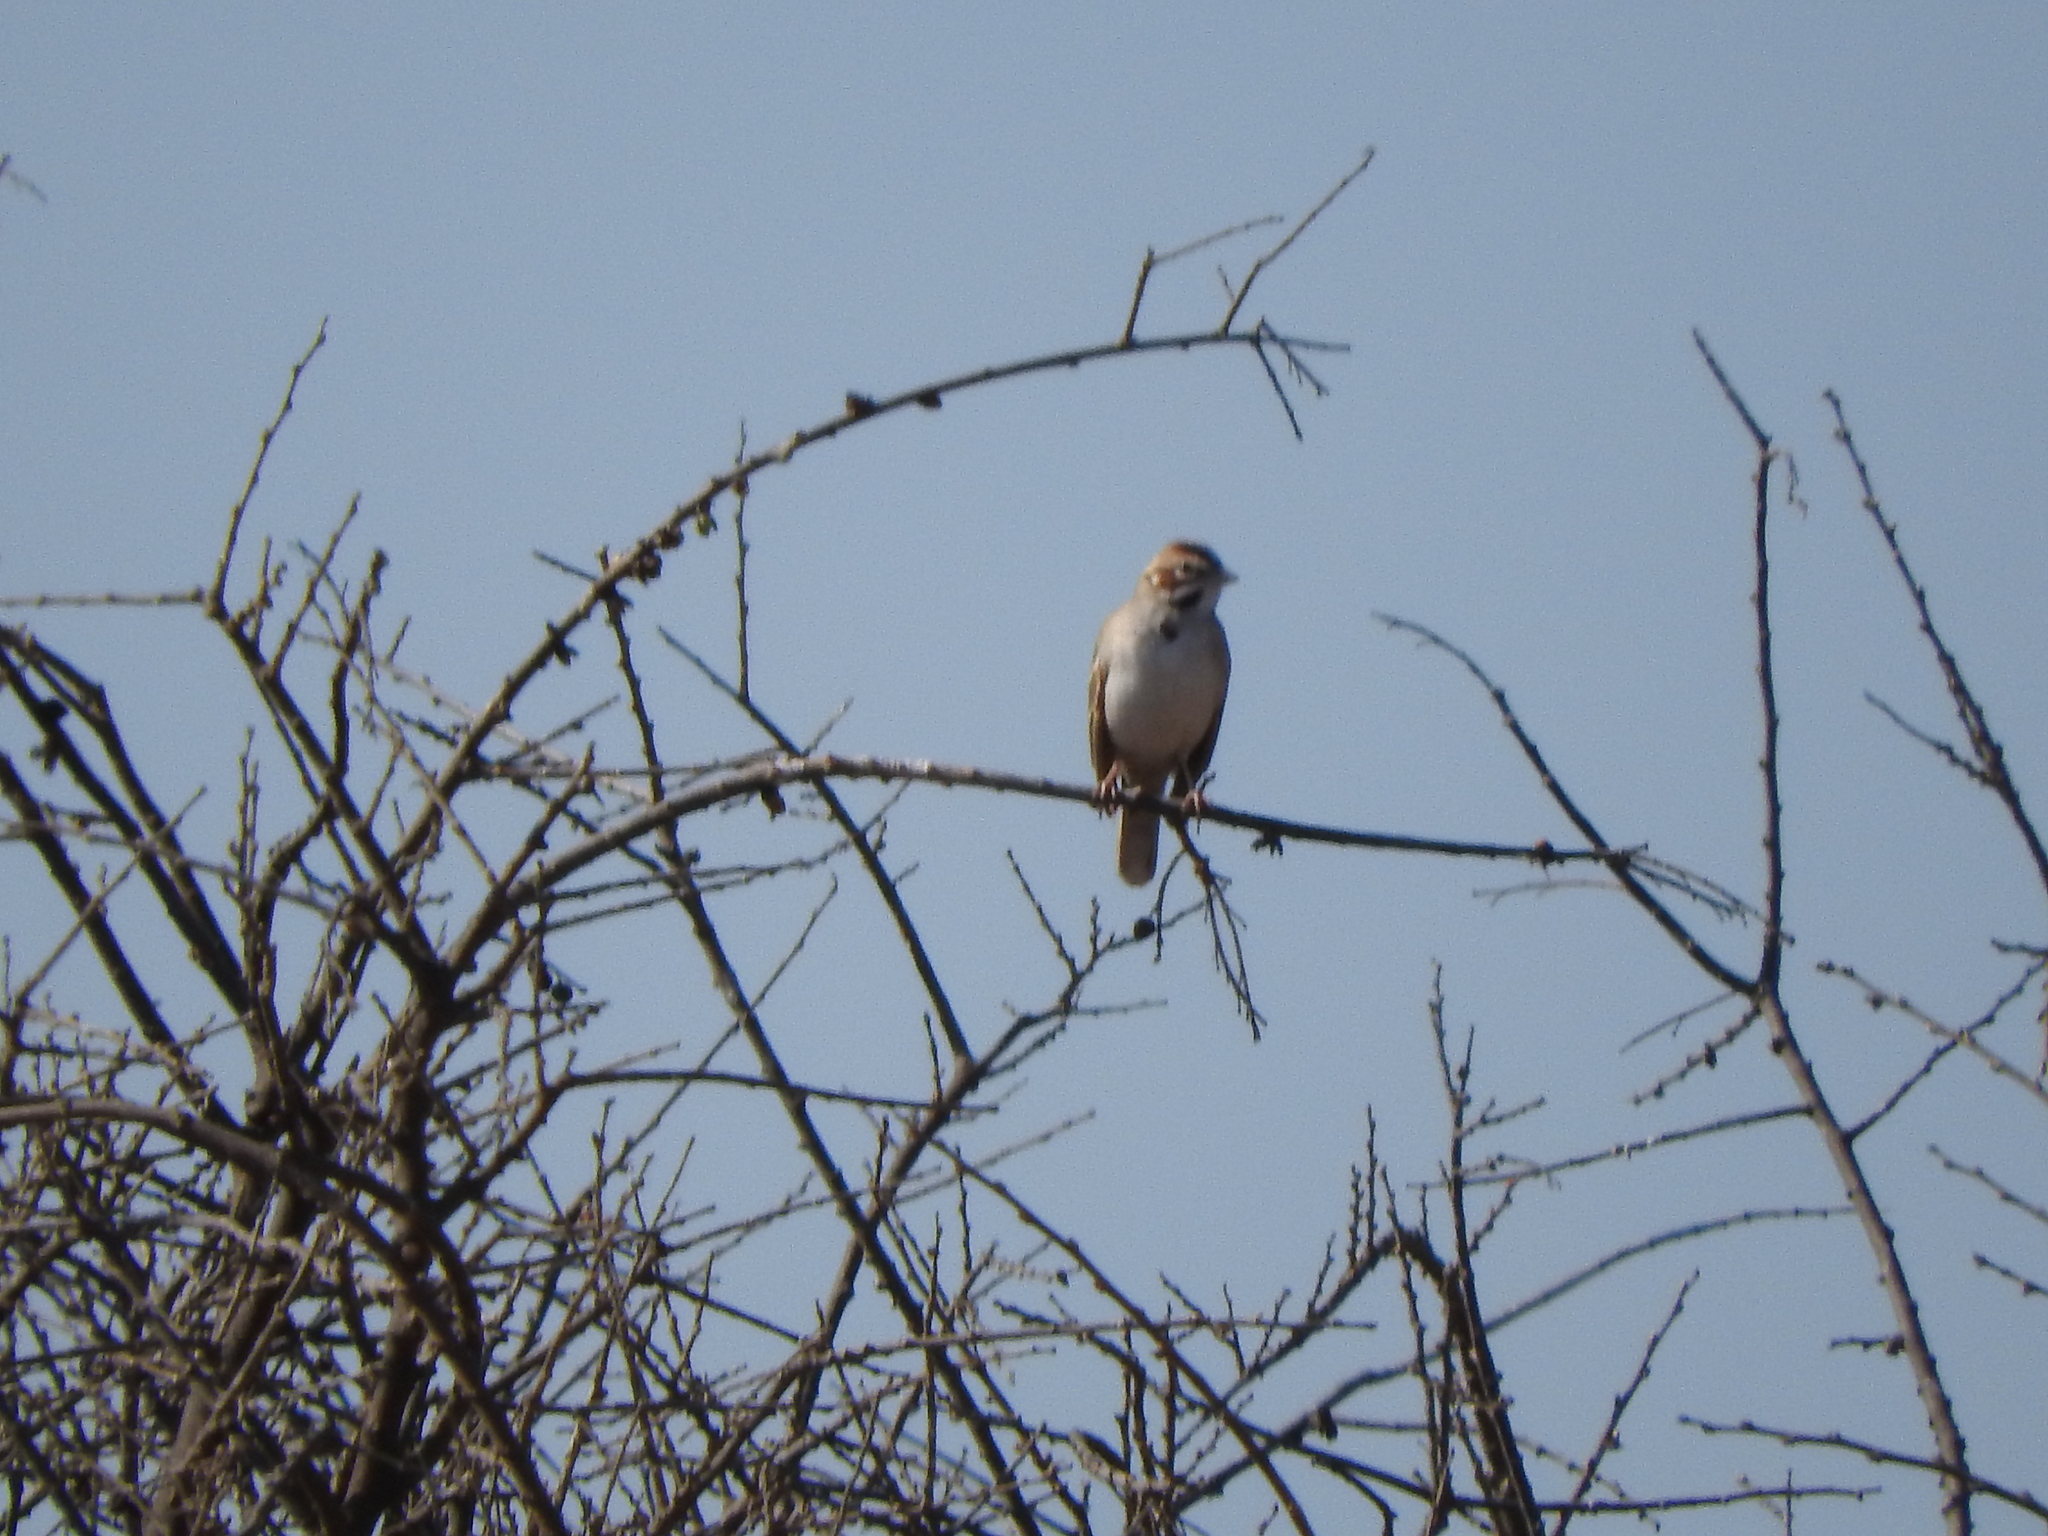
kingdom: Animalia
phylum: Chordata
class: Aves
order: Passeriformes
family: Passerellidae
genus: Chondestes
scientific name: Chondestes grammacus
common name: Lark sparrow
